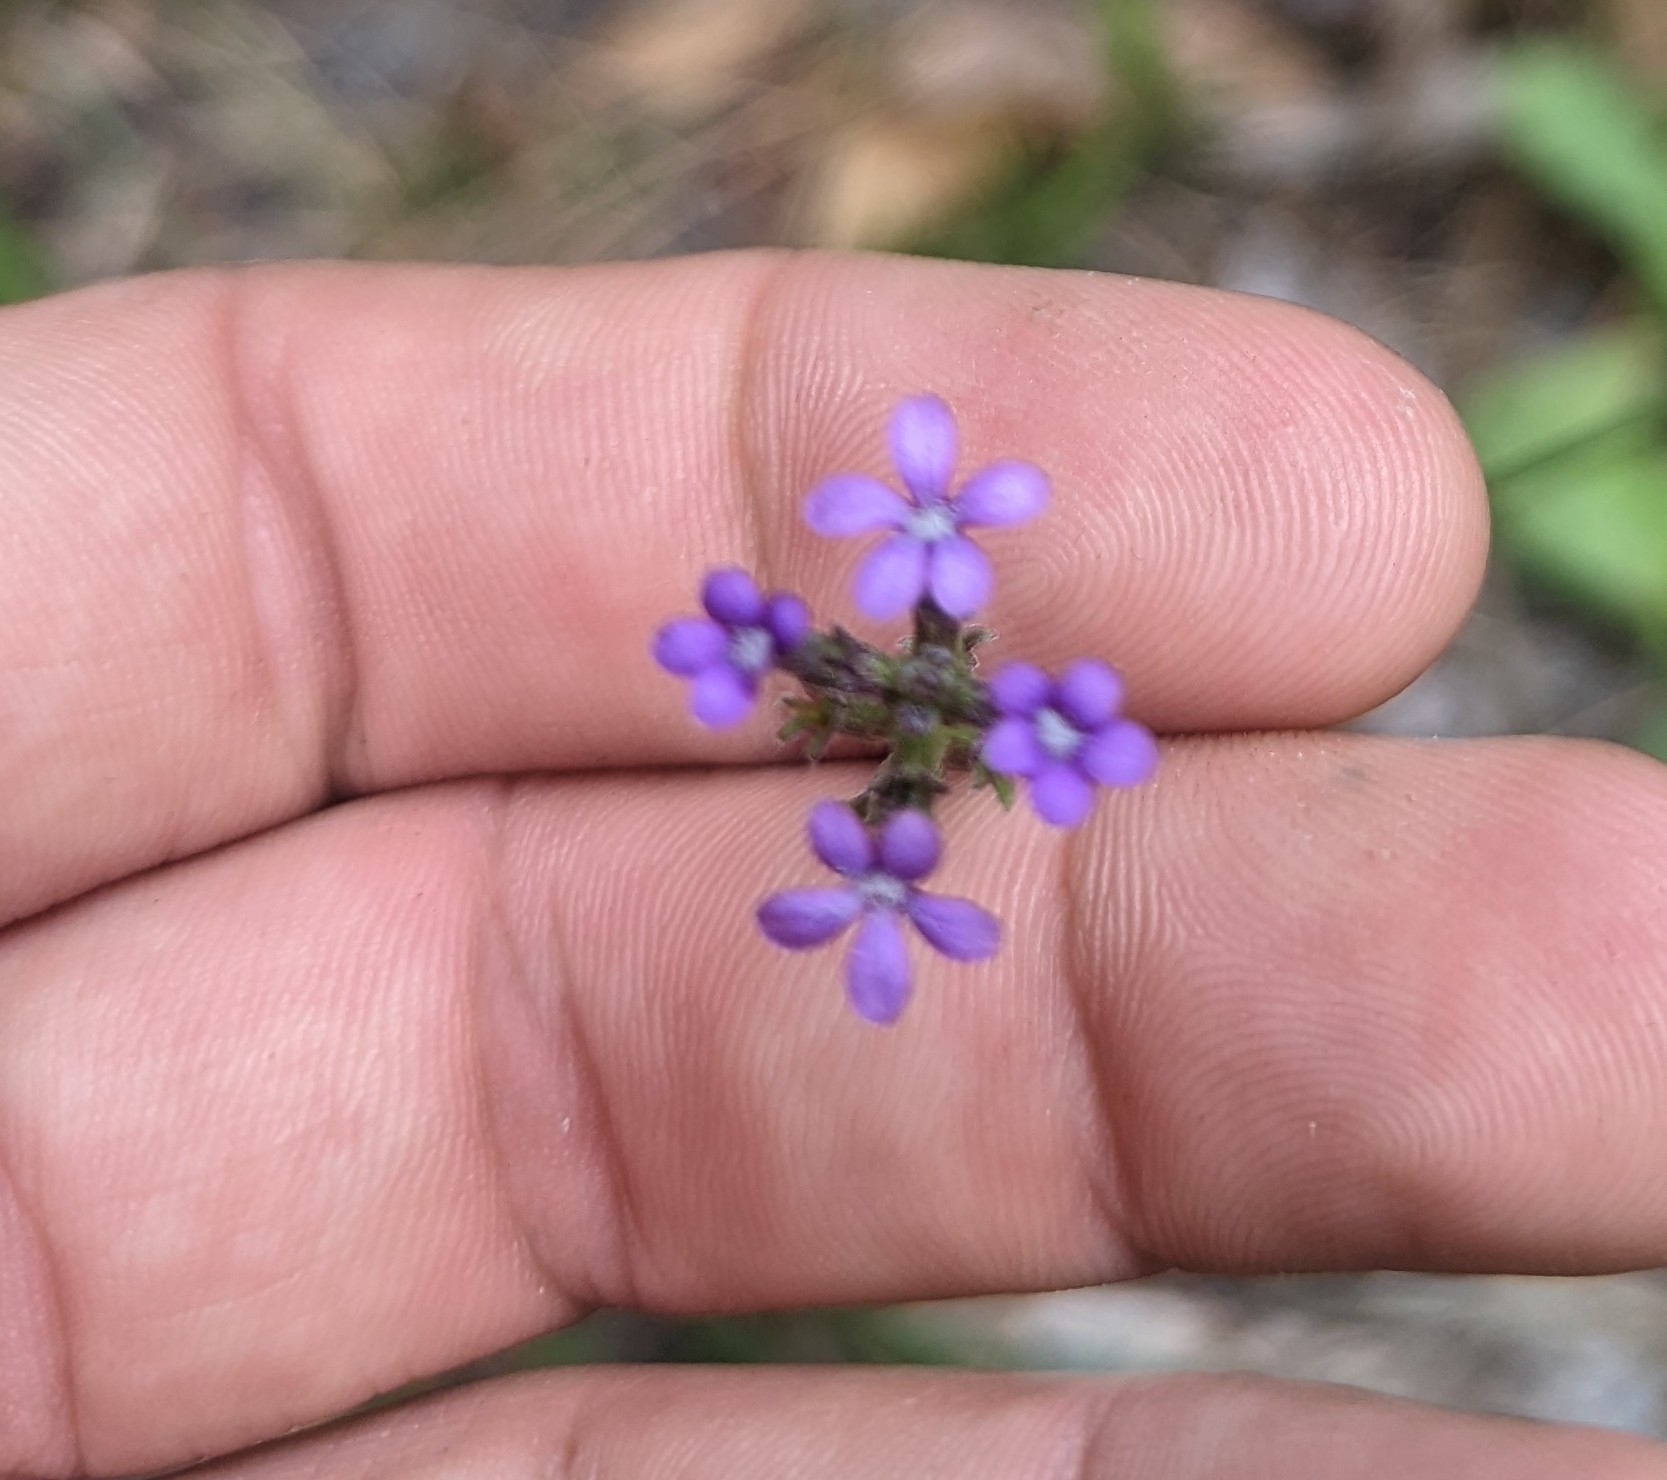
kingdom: Plantae
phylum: Tracheophyta
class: Magnoliopsida
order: Lamiales
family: Orobanchaceae
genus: Buchnera
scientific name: Buchnera floridana
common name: Florida bluehearts
